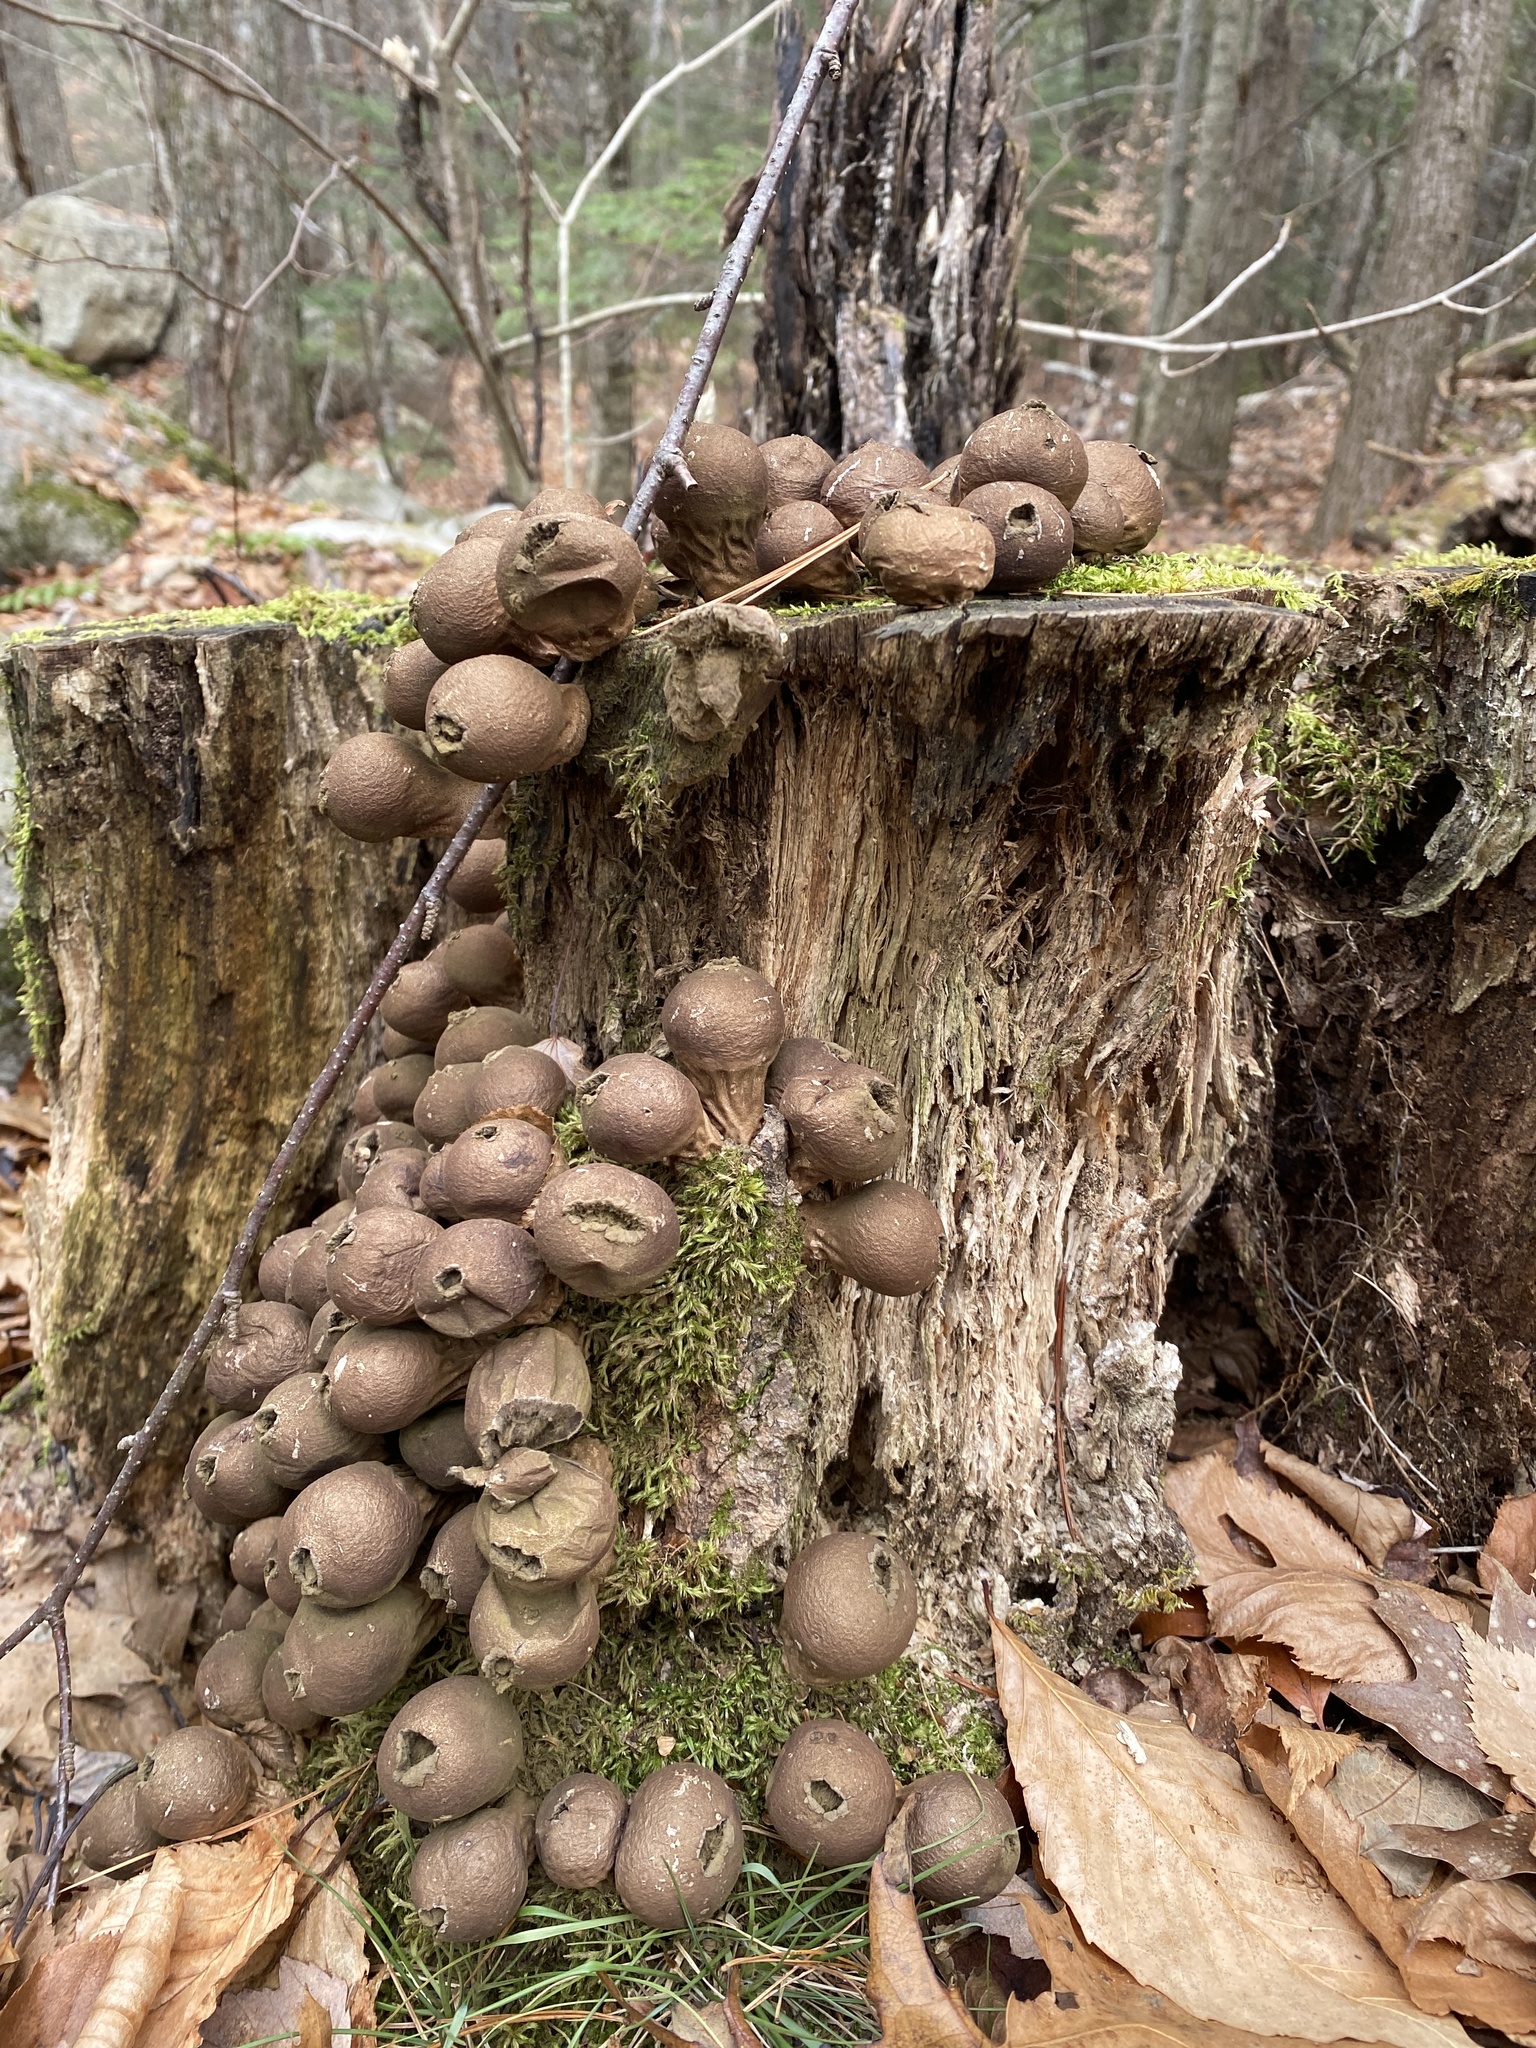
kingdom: Fungi
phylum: Basidiomycota
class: Agaricomycetes
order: Agaricales
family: Lycoperdaceae
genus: Apioperdon
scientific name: Apioperdon pyriforme
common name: Pear-shaped puffball
